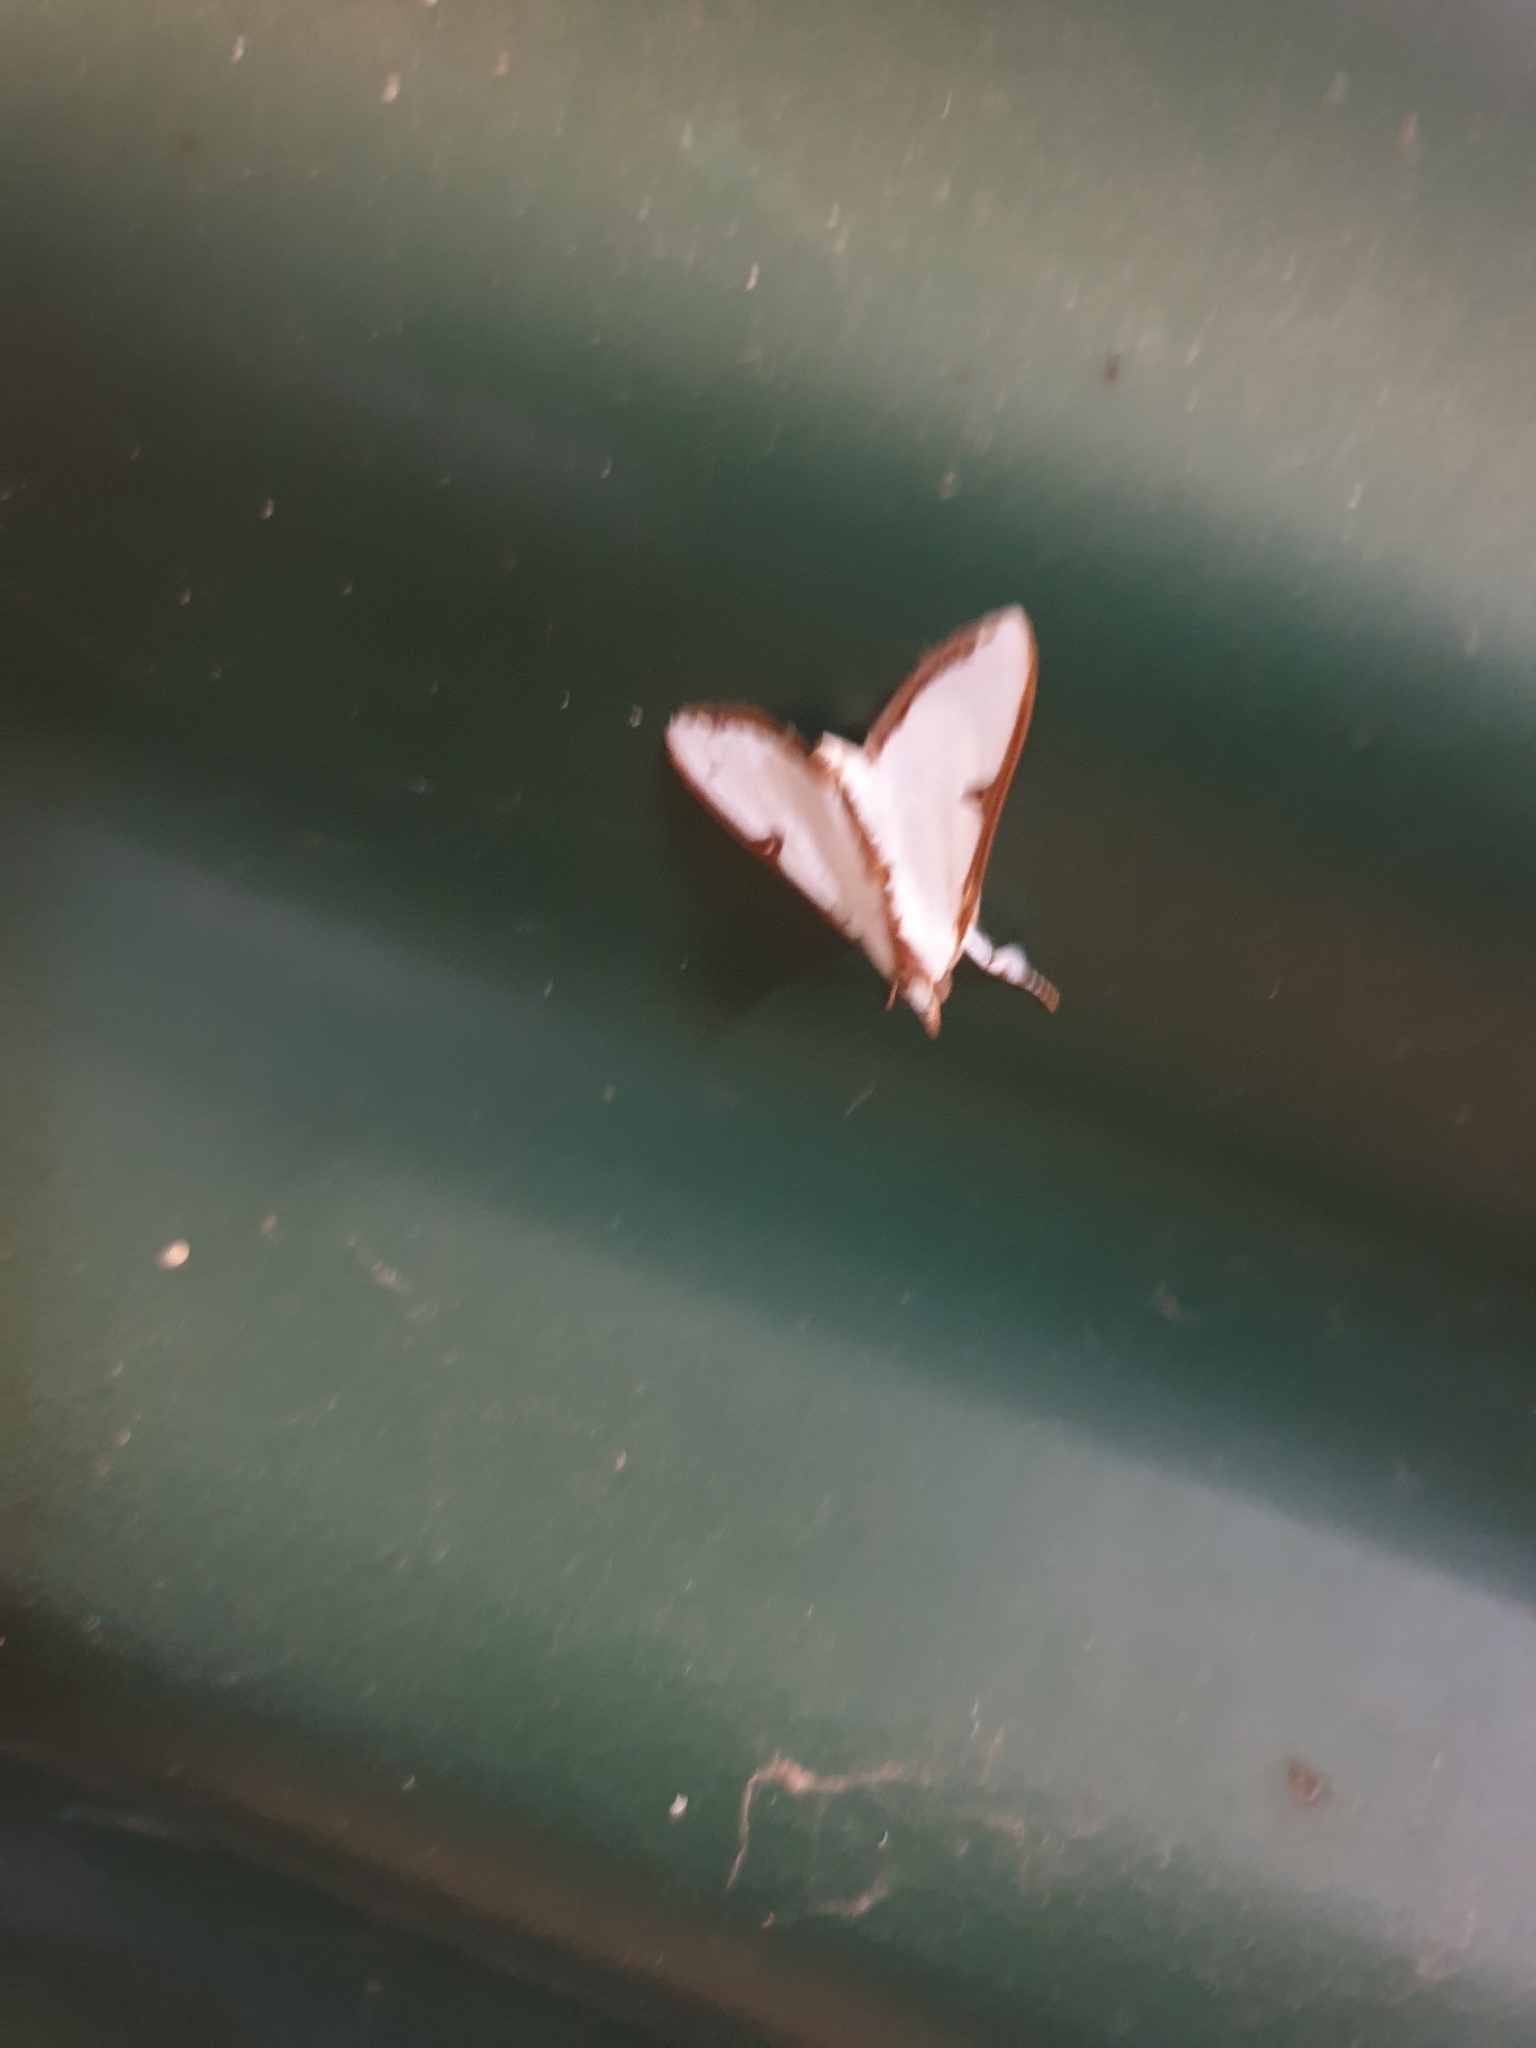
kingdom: Animalia
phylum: Arthropoda
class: Insecta
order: Lepidoptera
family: Crambidae
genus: Cirrhochrista
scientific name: Cirrhochrista arcusalis
